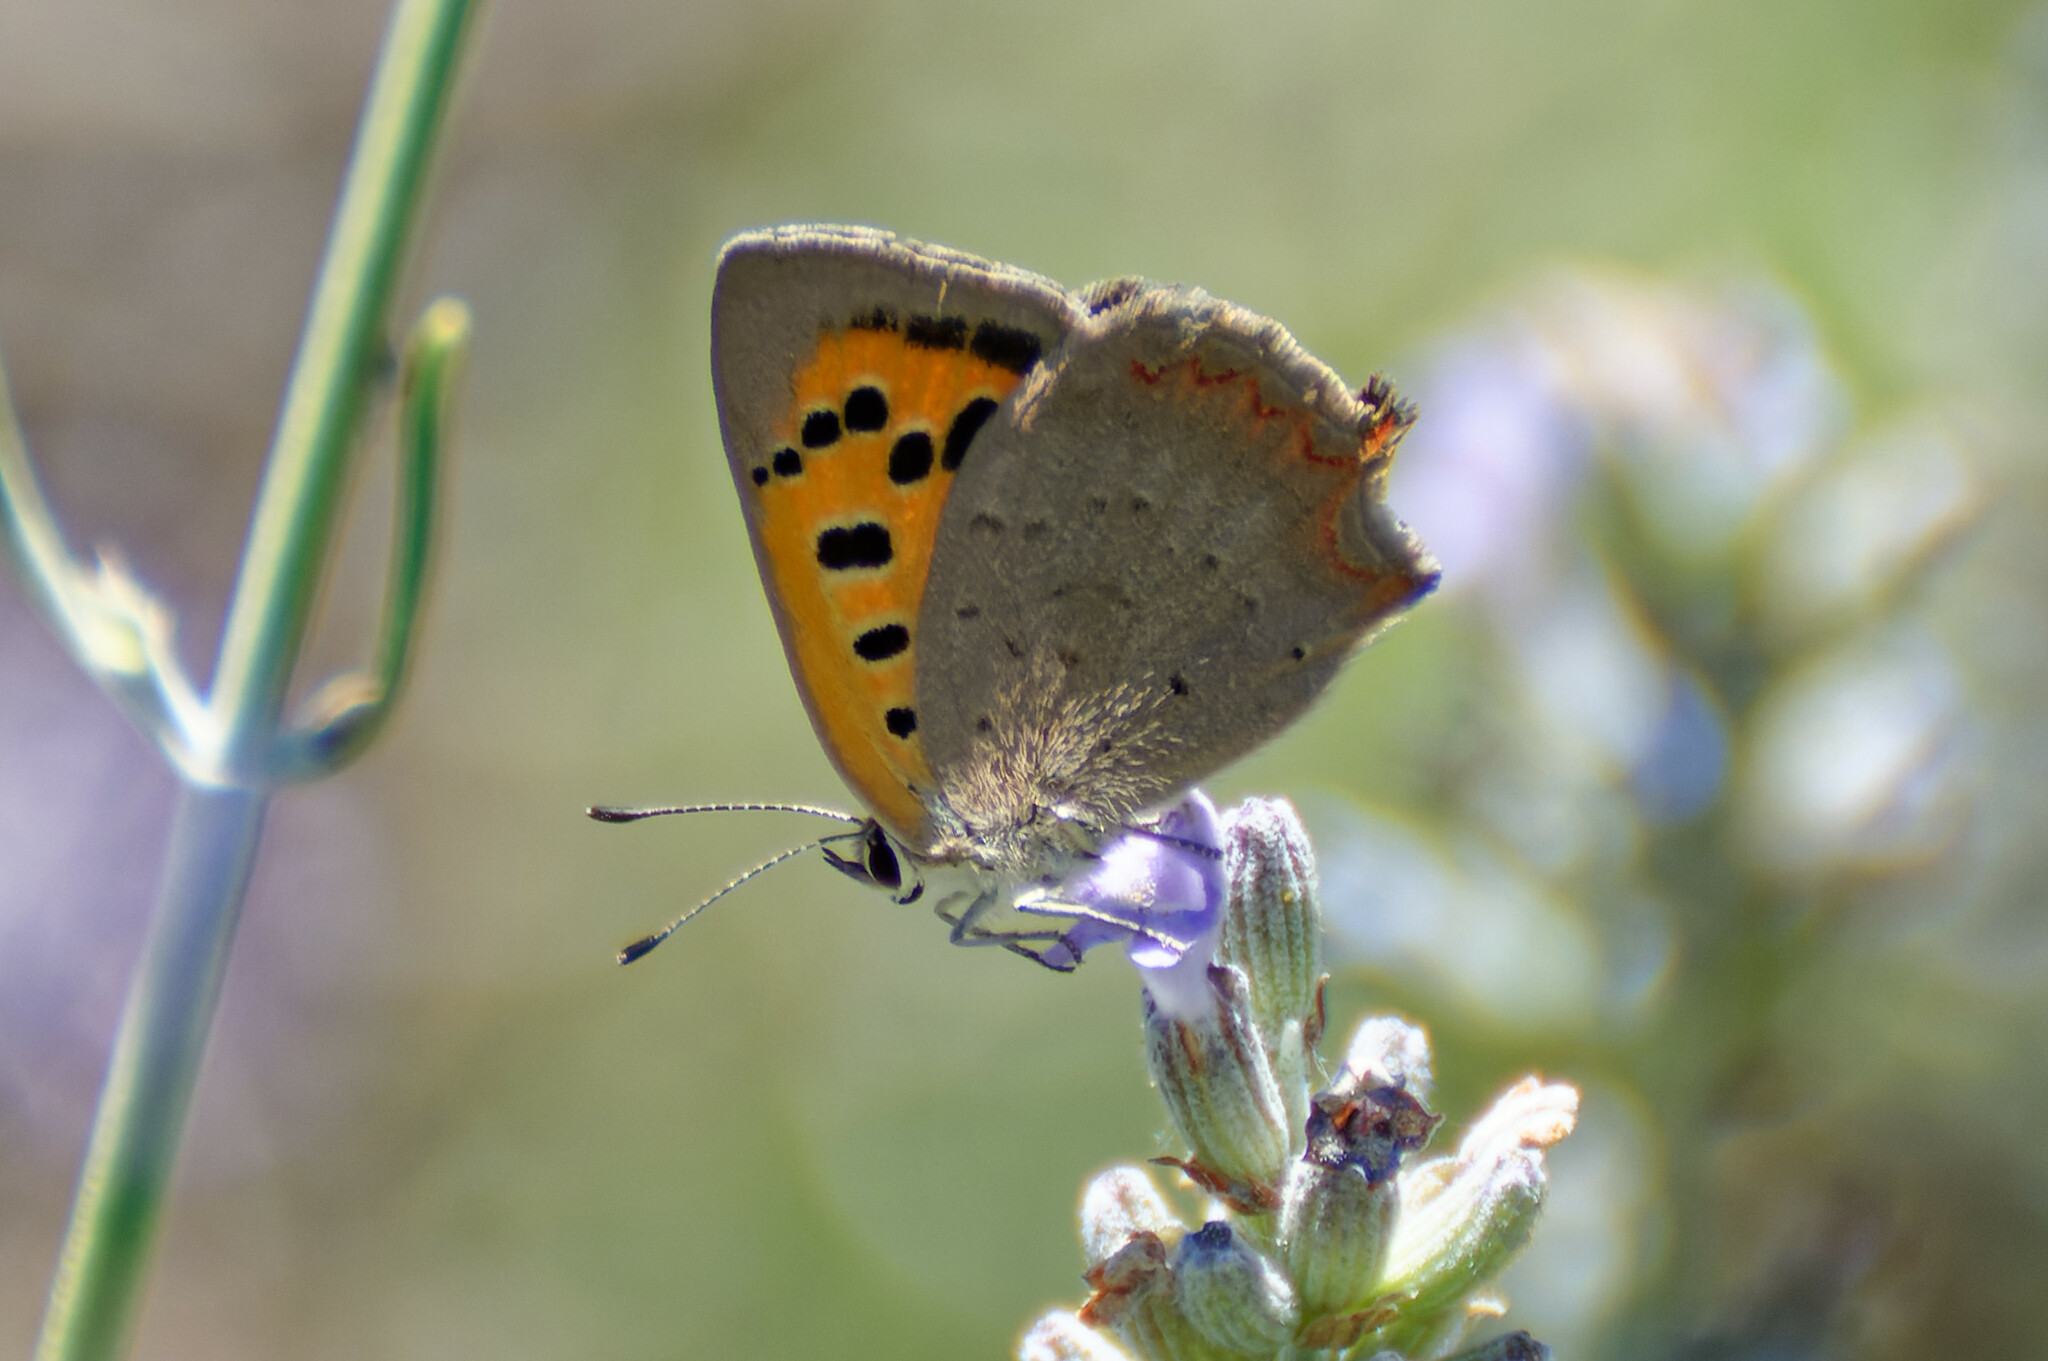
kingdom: Animalia
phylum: Arthropoda
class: Insecta
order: Lepidoptera
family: Lycaenidae
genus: Lycaena
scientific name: Lycaena phlaeas
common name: Small copper
